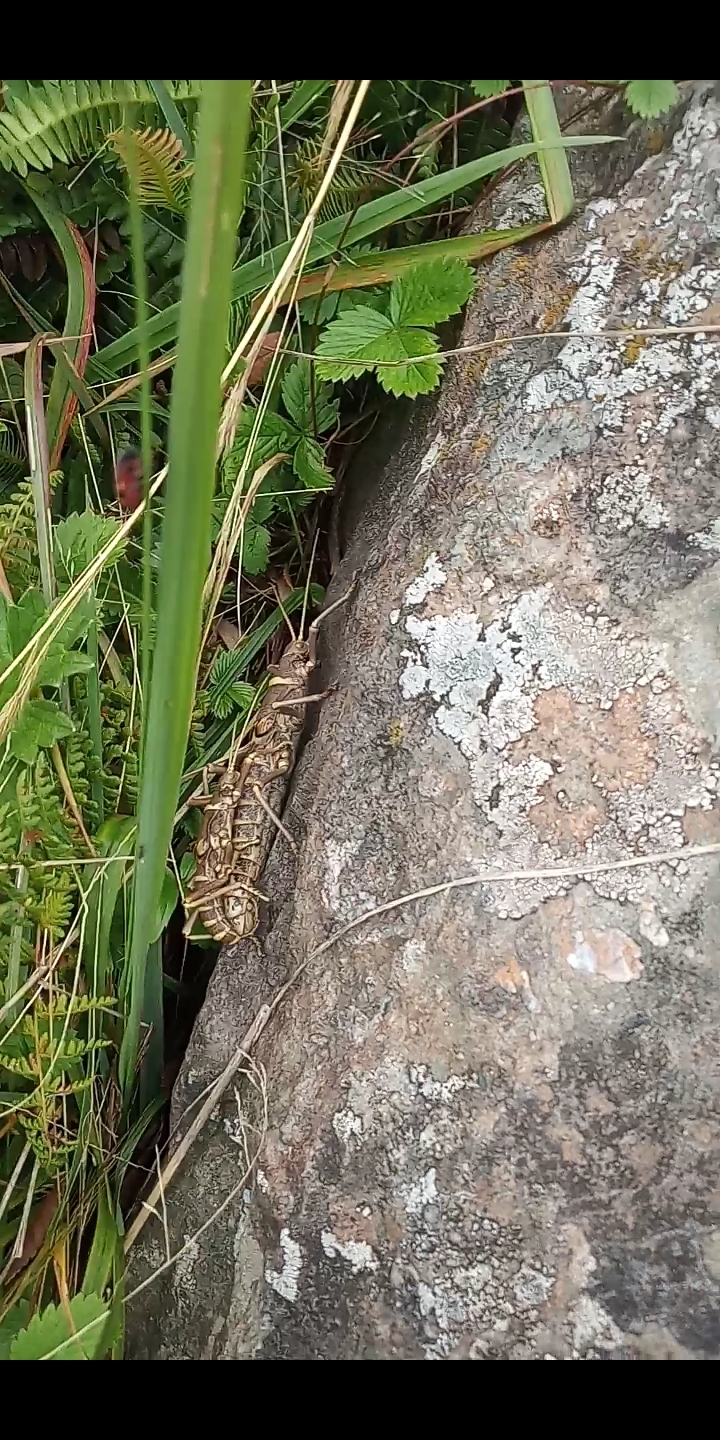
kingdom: Animalia
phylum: Arthropoda
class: Insecta
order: Phasmida
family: Agathemeridae
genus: Agathemera
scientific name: Agathemera luteola
